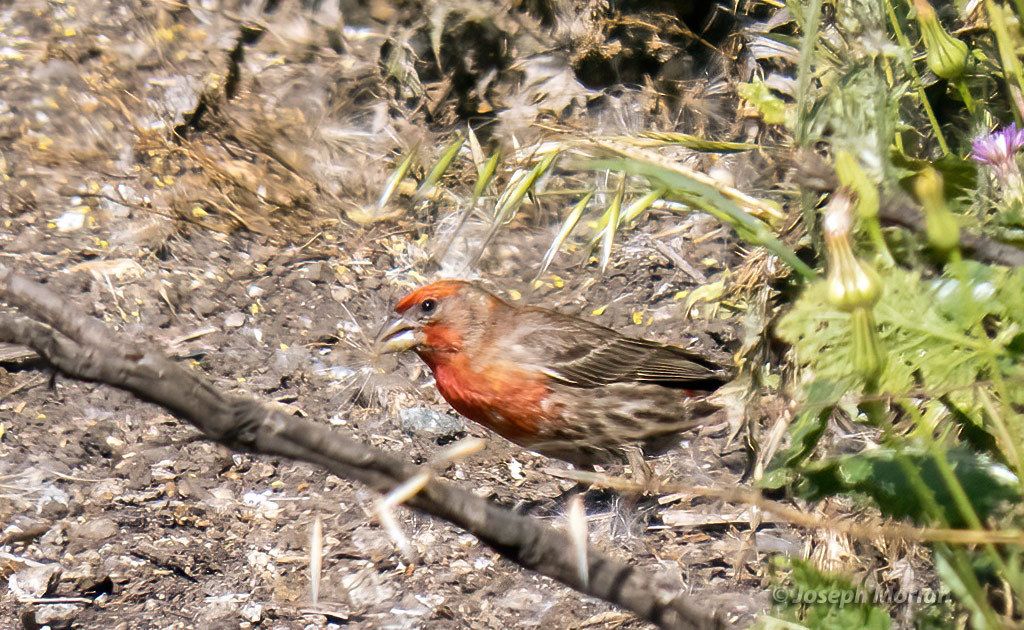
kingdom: Animalia
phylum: Chordata
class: Aves
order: Passeriformes
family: Fringillidae
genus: Haemorhous
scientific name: Haemorhous mexicanus
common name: House finch
